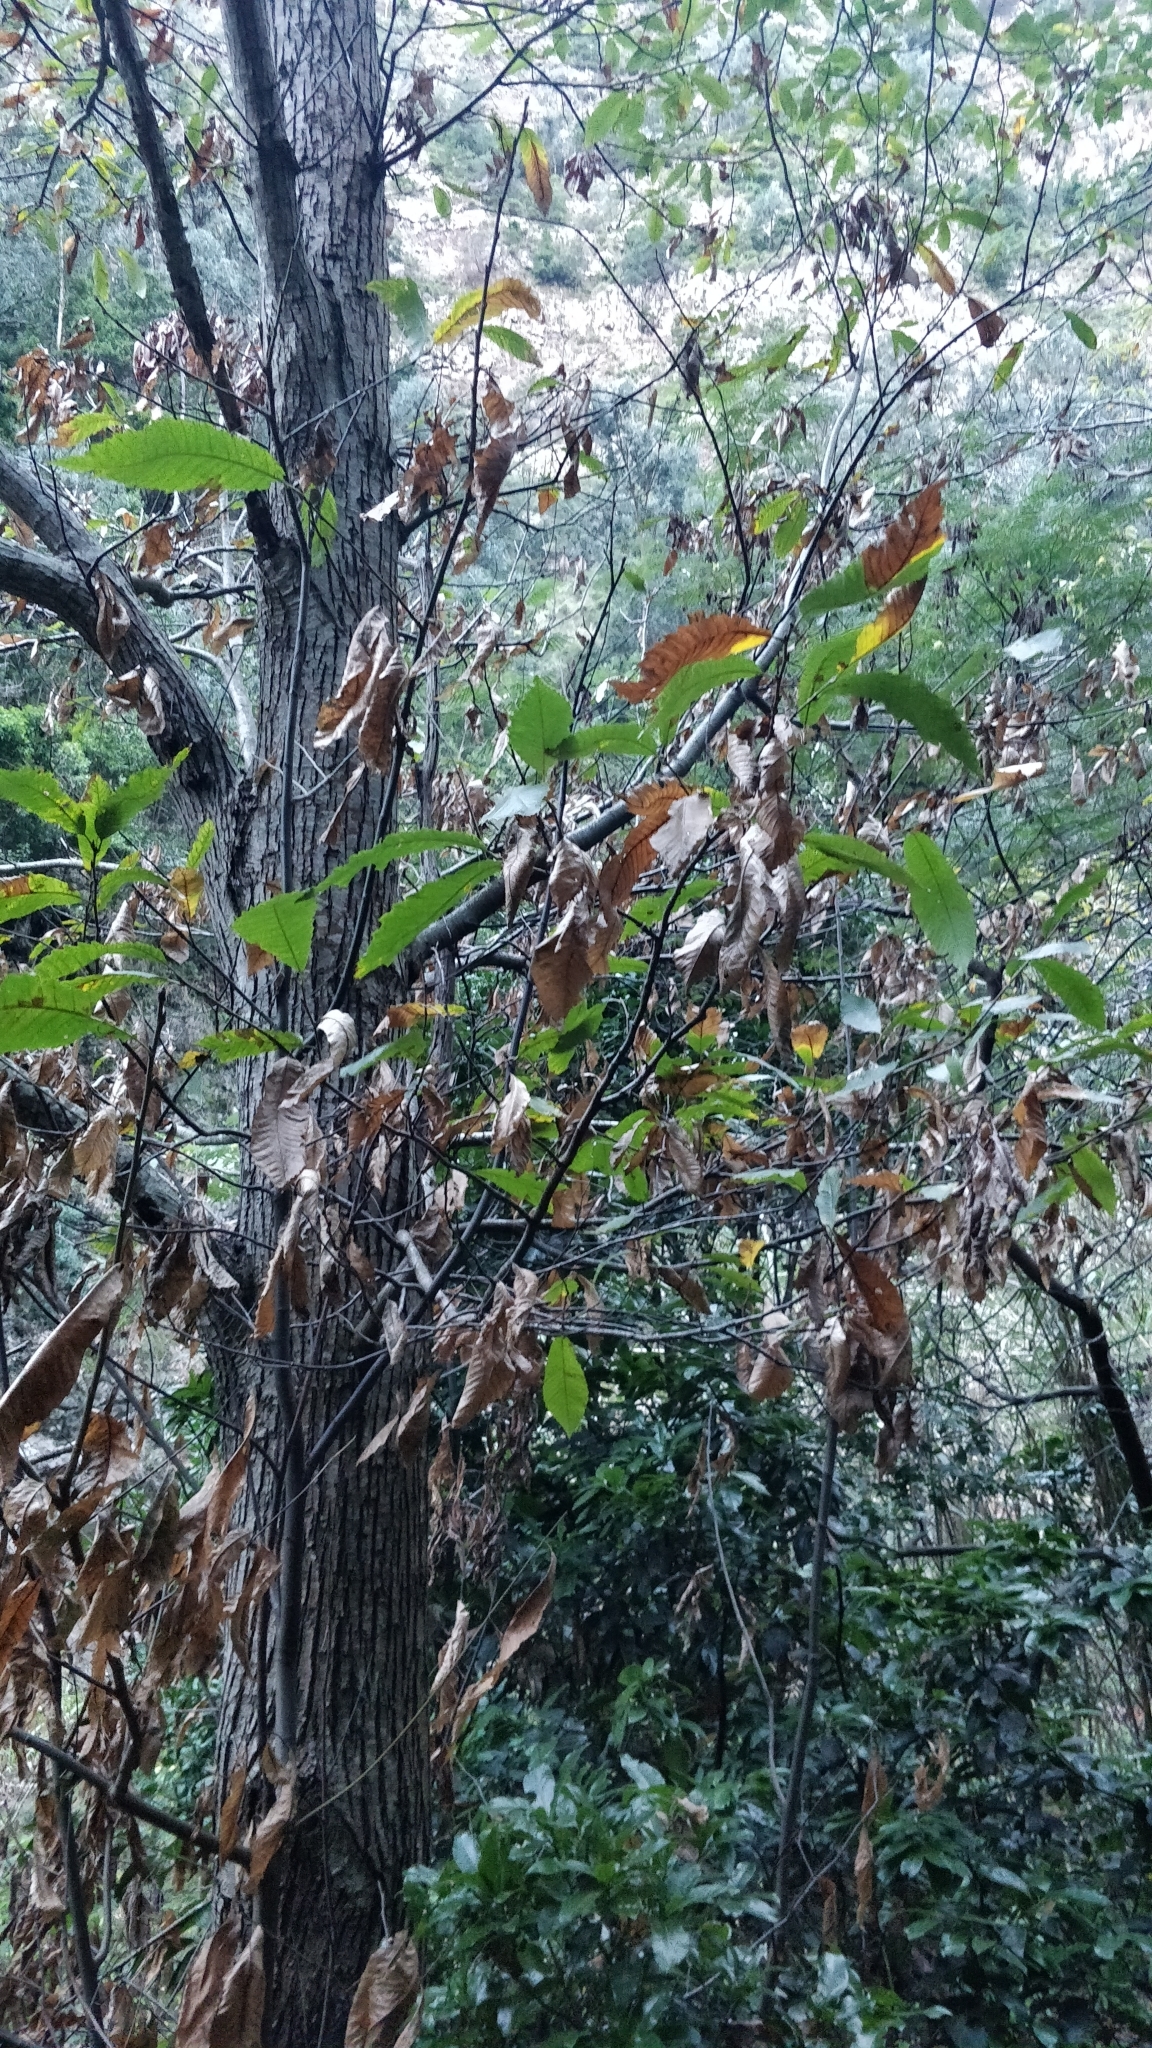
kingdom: Plantae
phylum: Tracheophyta
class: Magnoliopsida
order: Fagales
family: Fagaceae
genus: Castanea
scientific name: Castanea sativa
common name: Sweet chestnut
